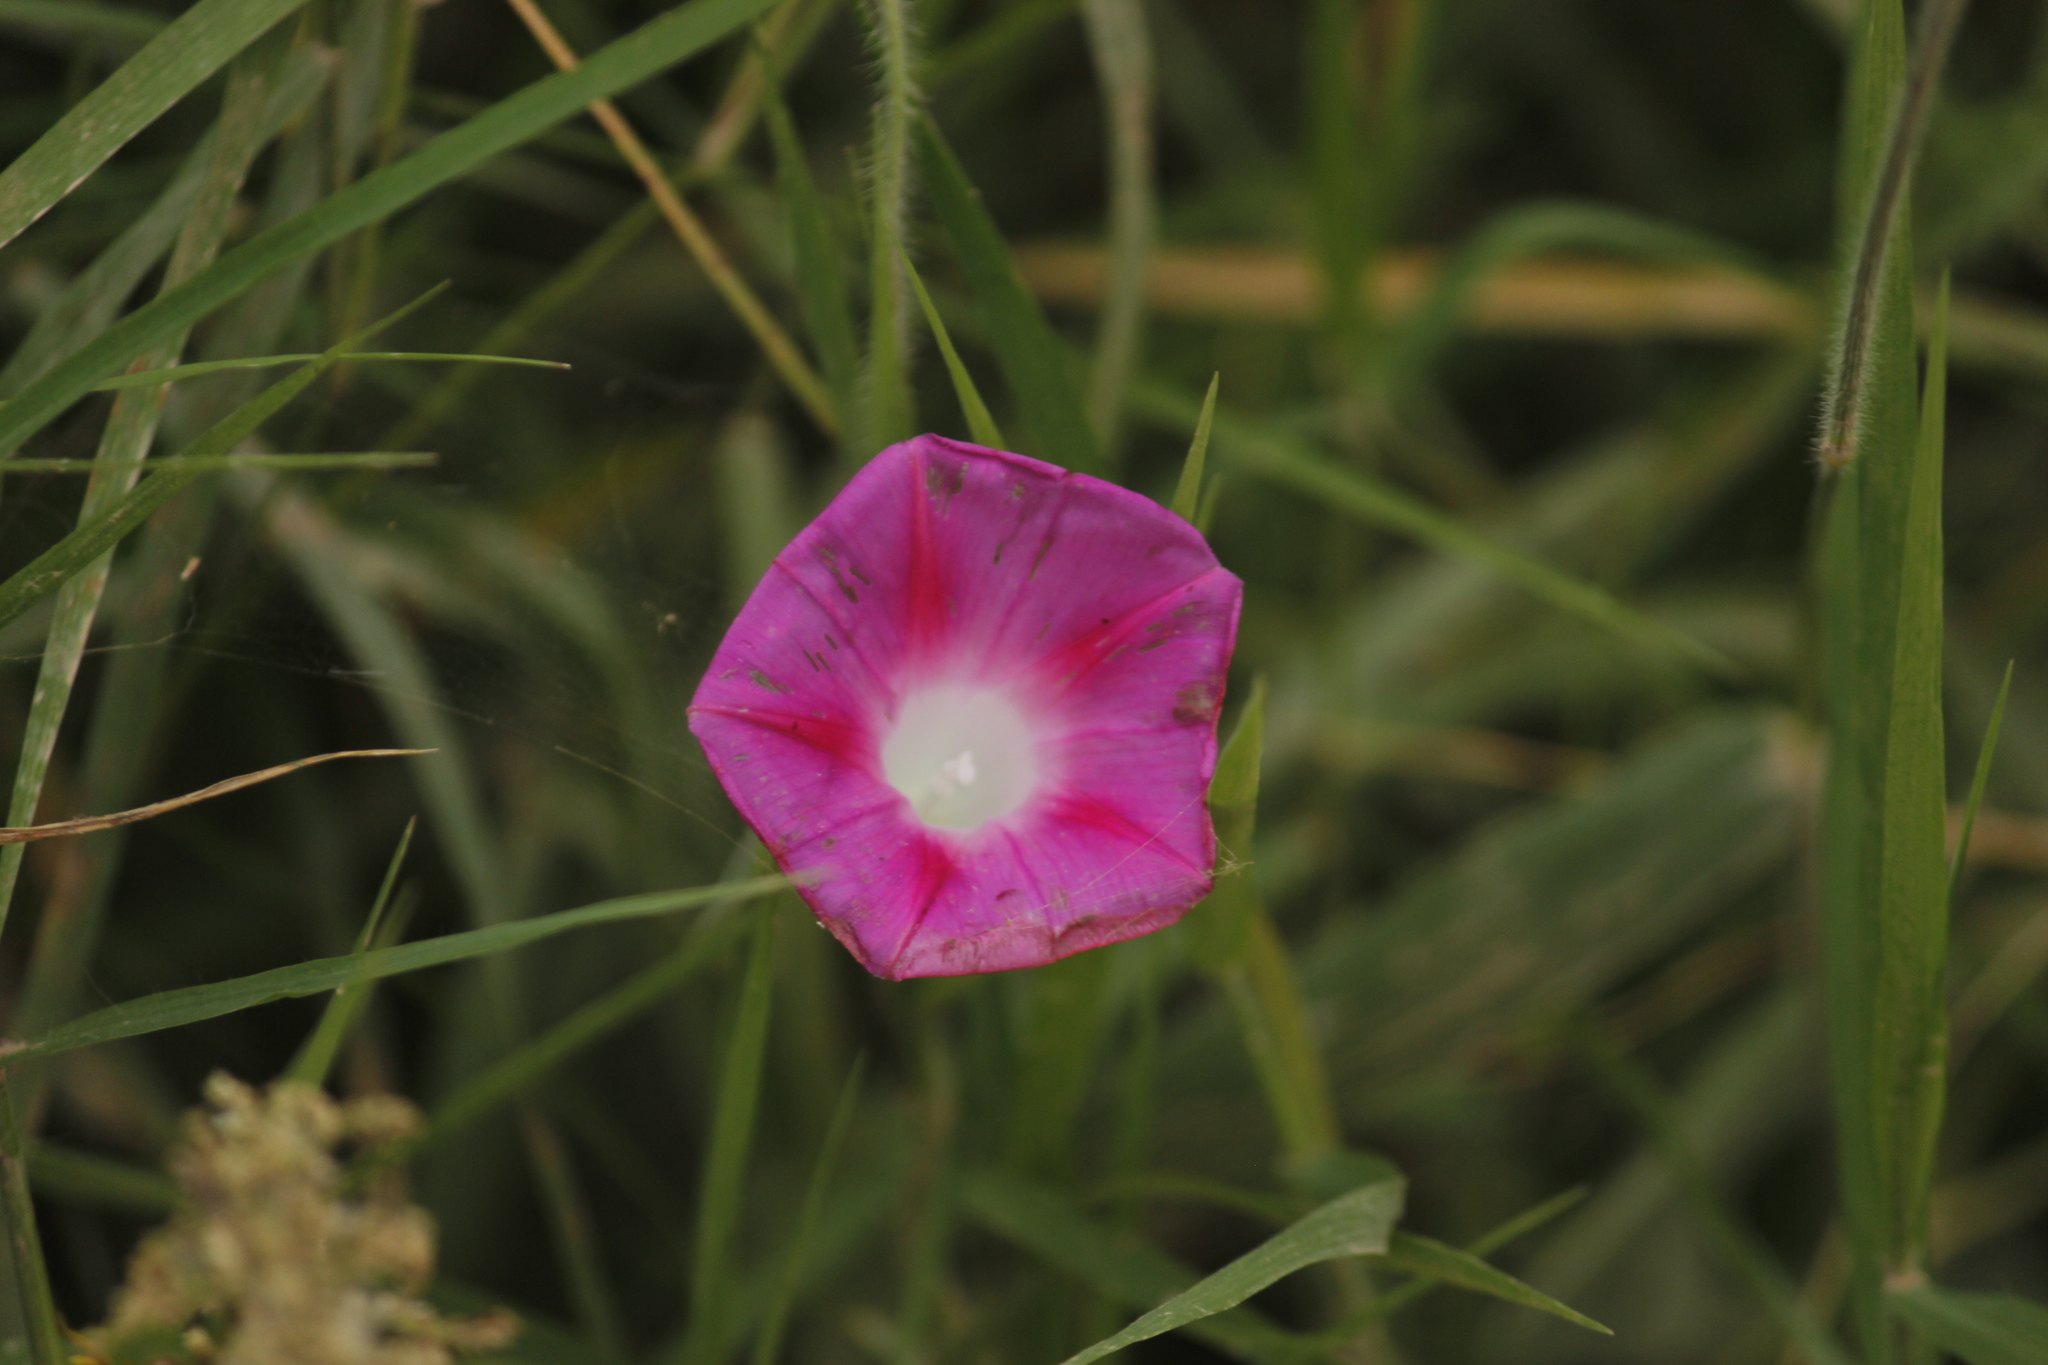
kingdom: Plantae
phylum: Tracheophyta
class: Magnoliopsida
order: Solanales
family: Convolvulaceae
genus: Ipomoea
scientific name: Ipomoea purpurea
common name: Common morning-glory
